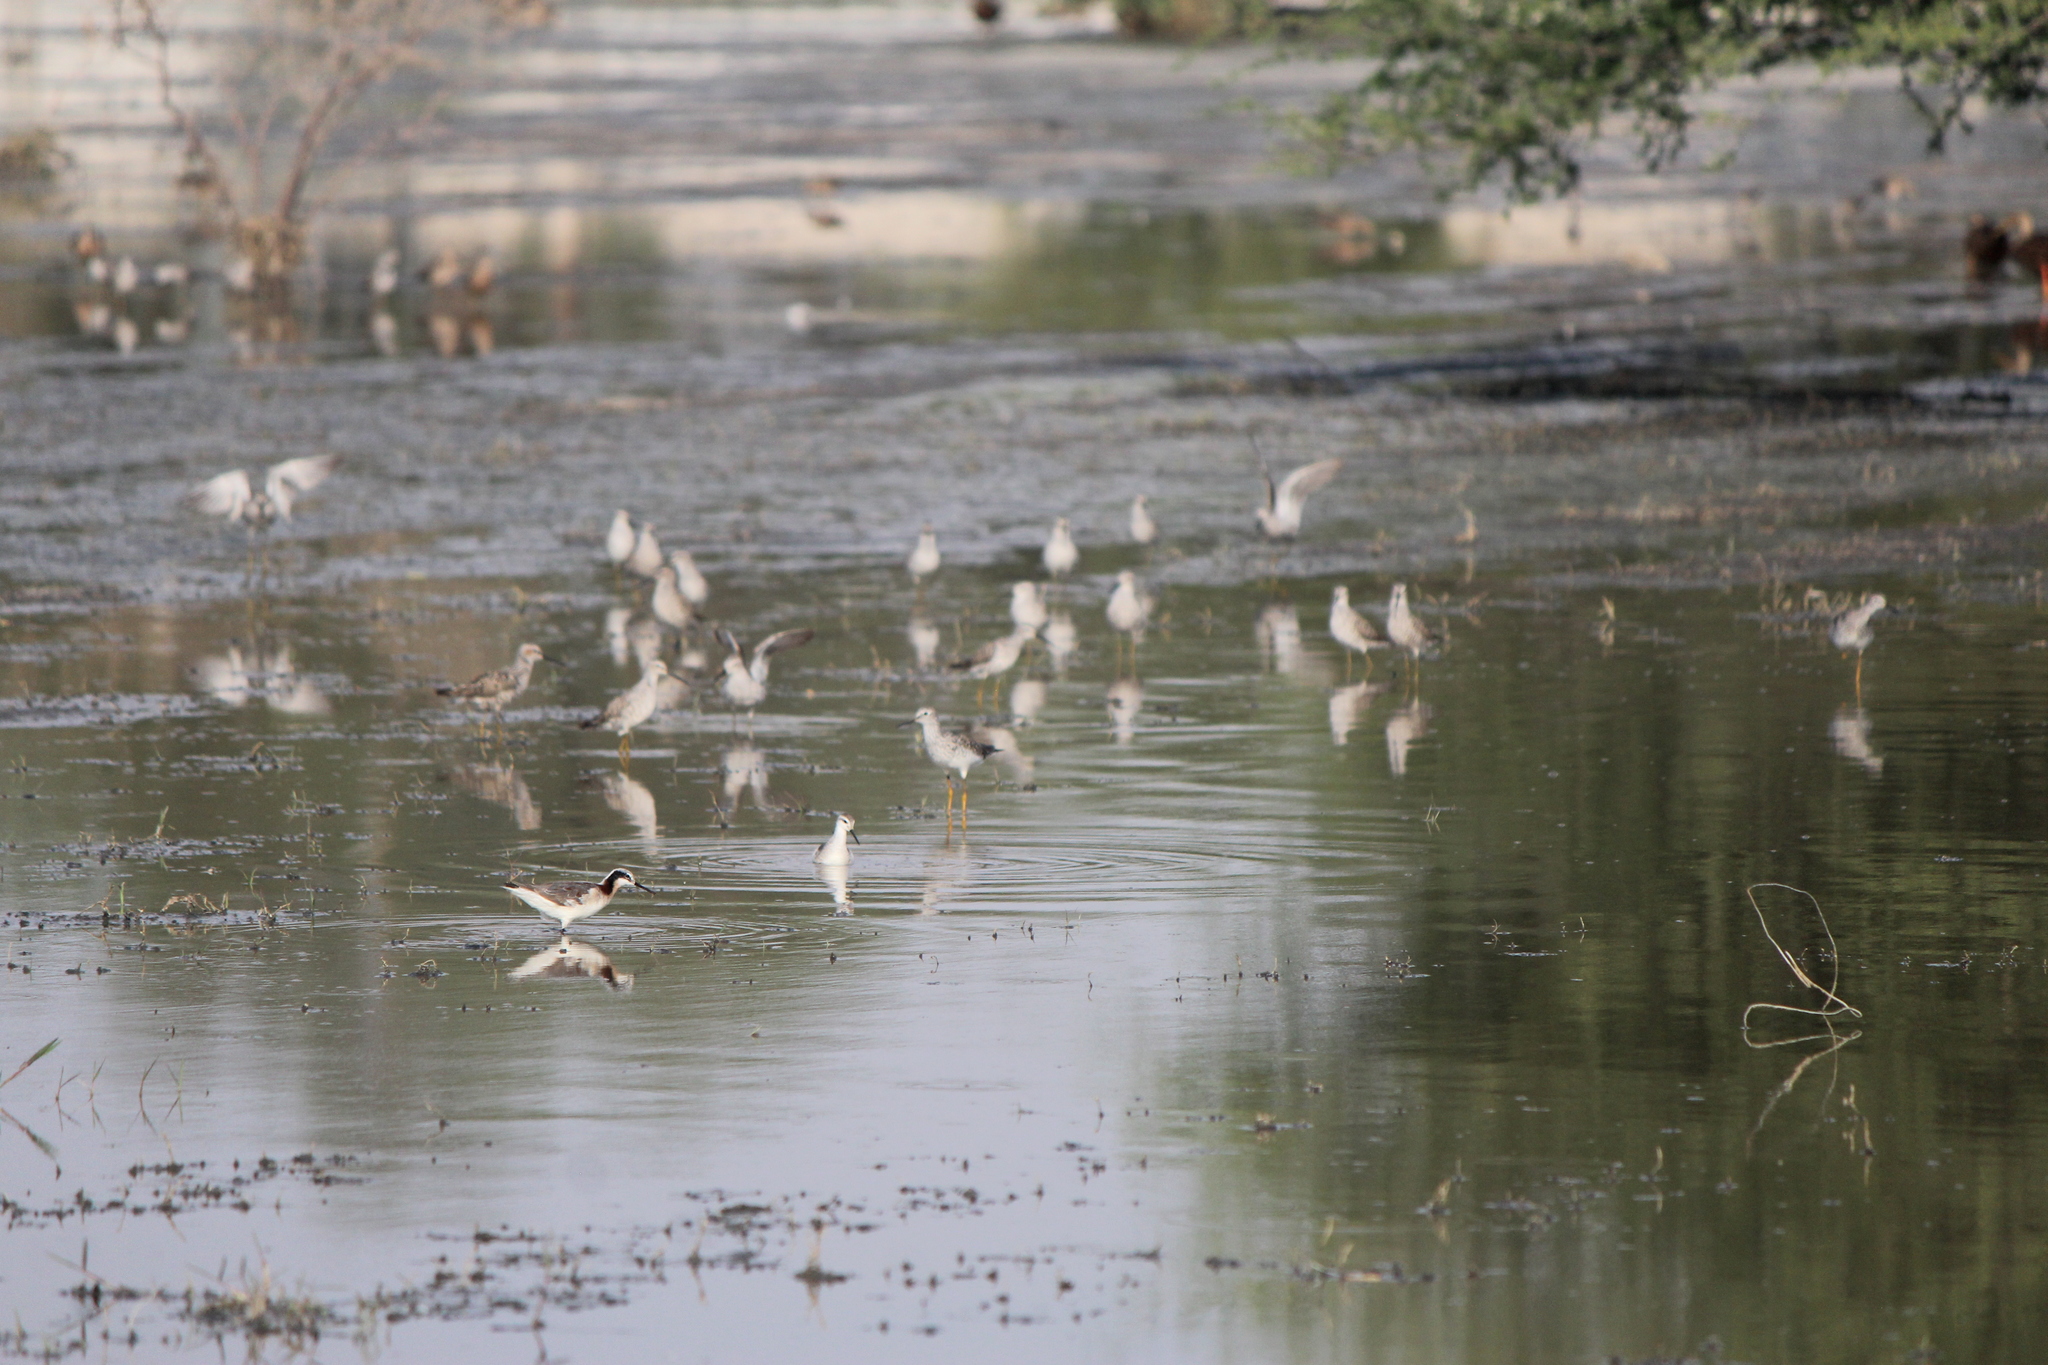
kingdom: Animalia
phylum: Chordata
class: Aves
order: Charadriiformes
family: Scolopacidae
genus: Phalaropus
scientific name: Phalaropus tricolor
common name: Wilson's phalarope
